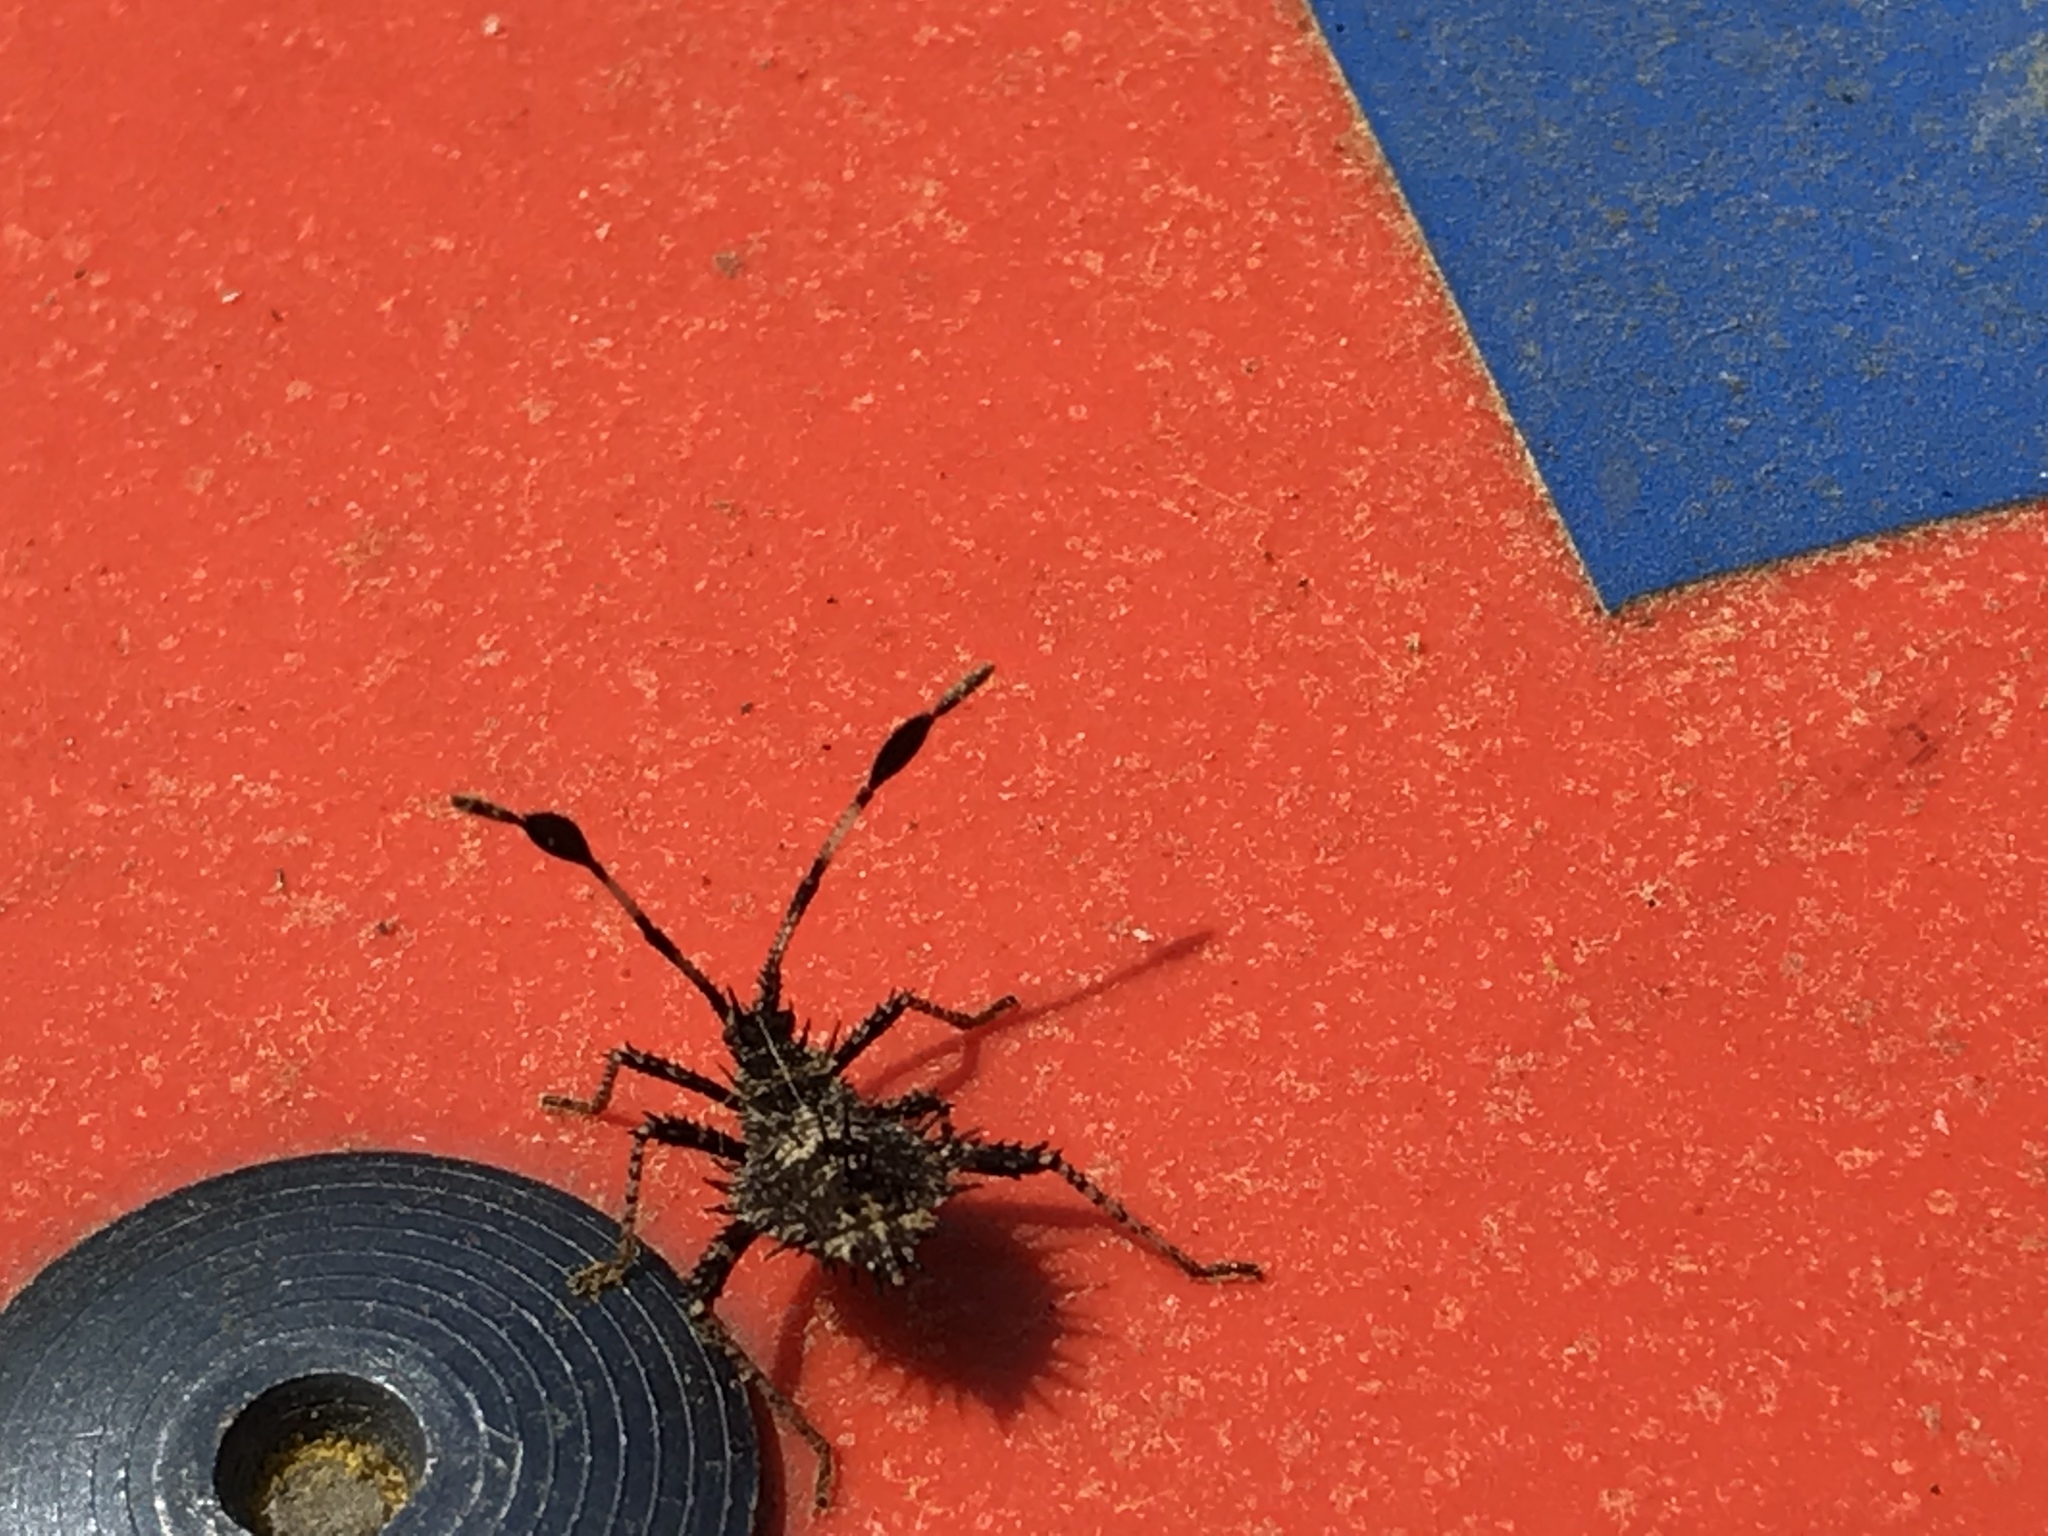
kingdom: Animalia
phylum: Arthropoda
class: Insecta
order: Hemiptera
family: Coreidae
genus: Euthochtha
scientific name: Euthochtha galeator
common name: Helmeted squash bug
